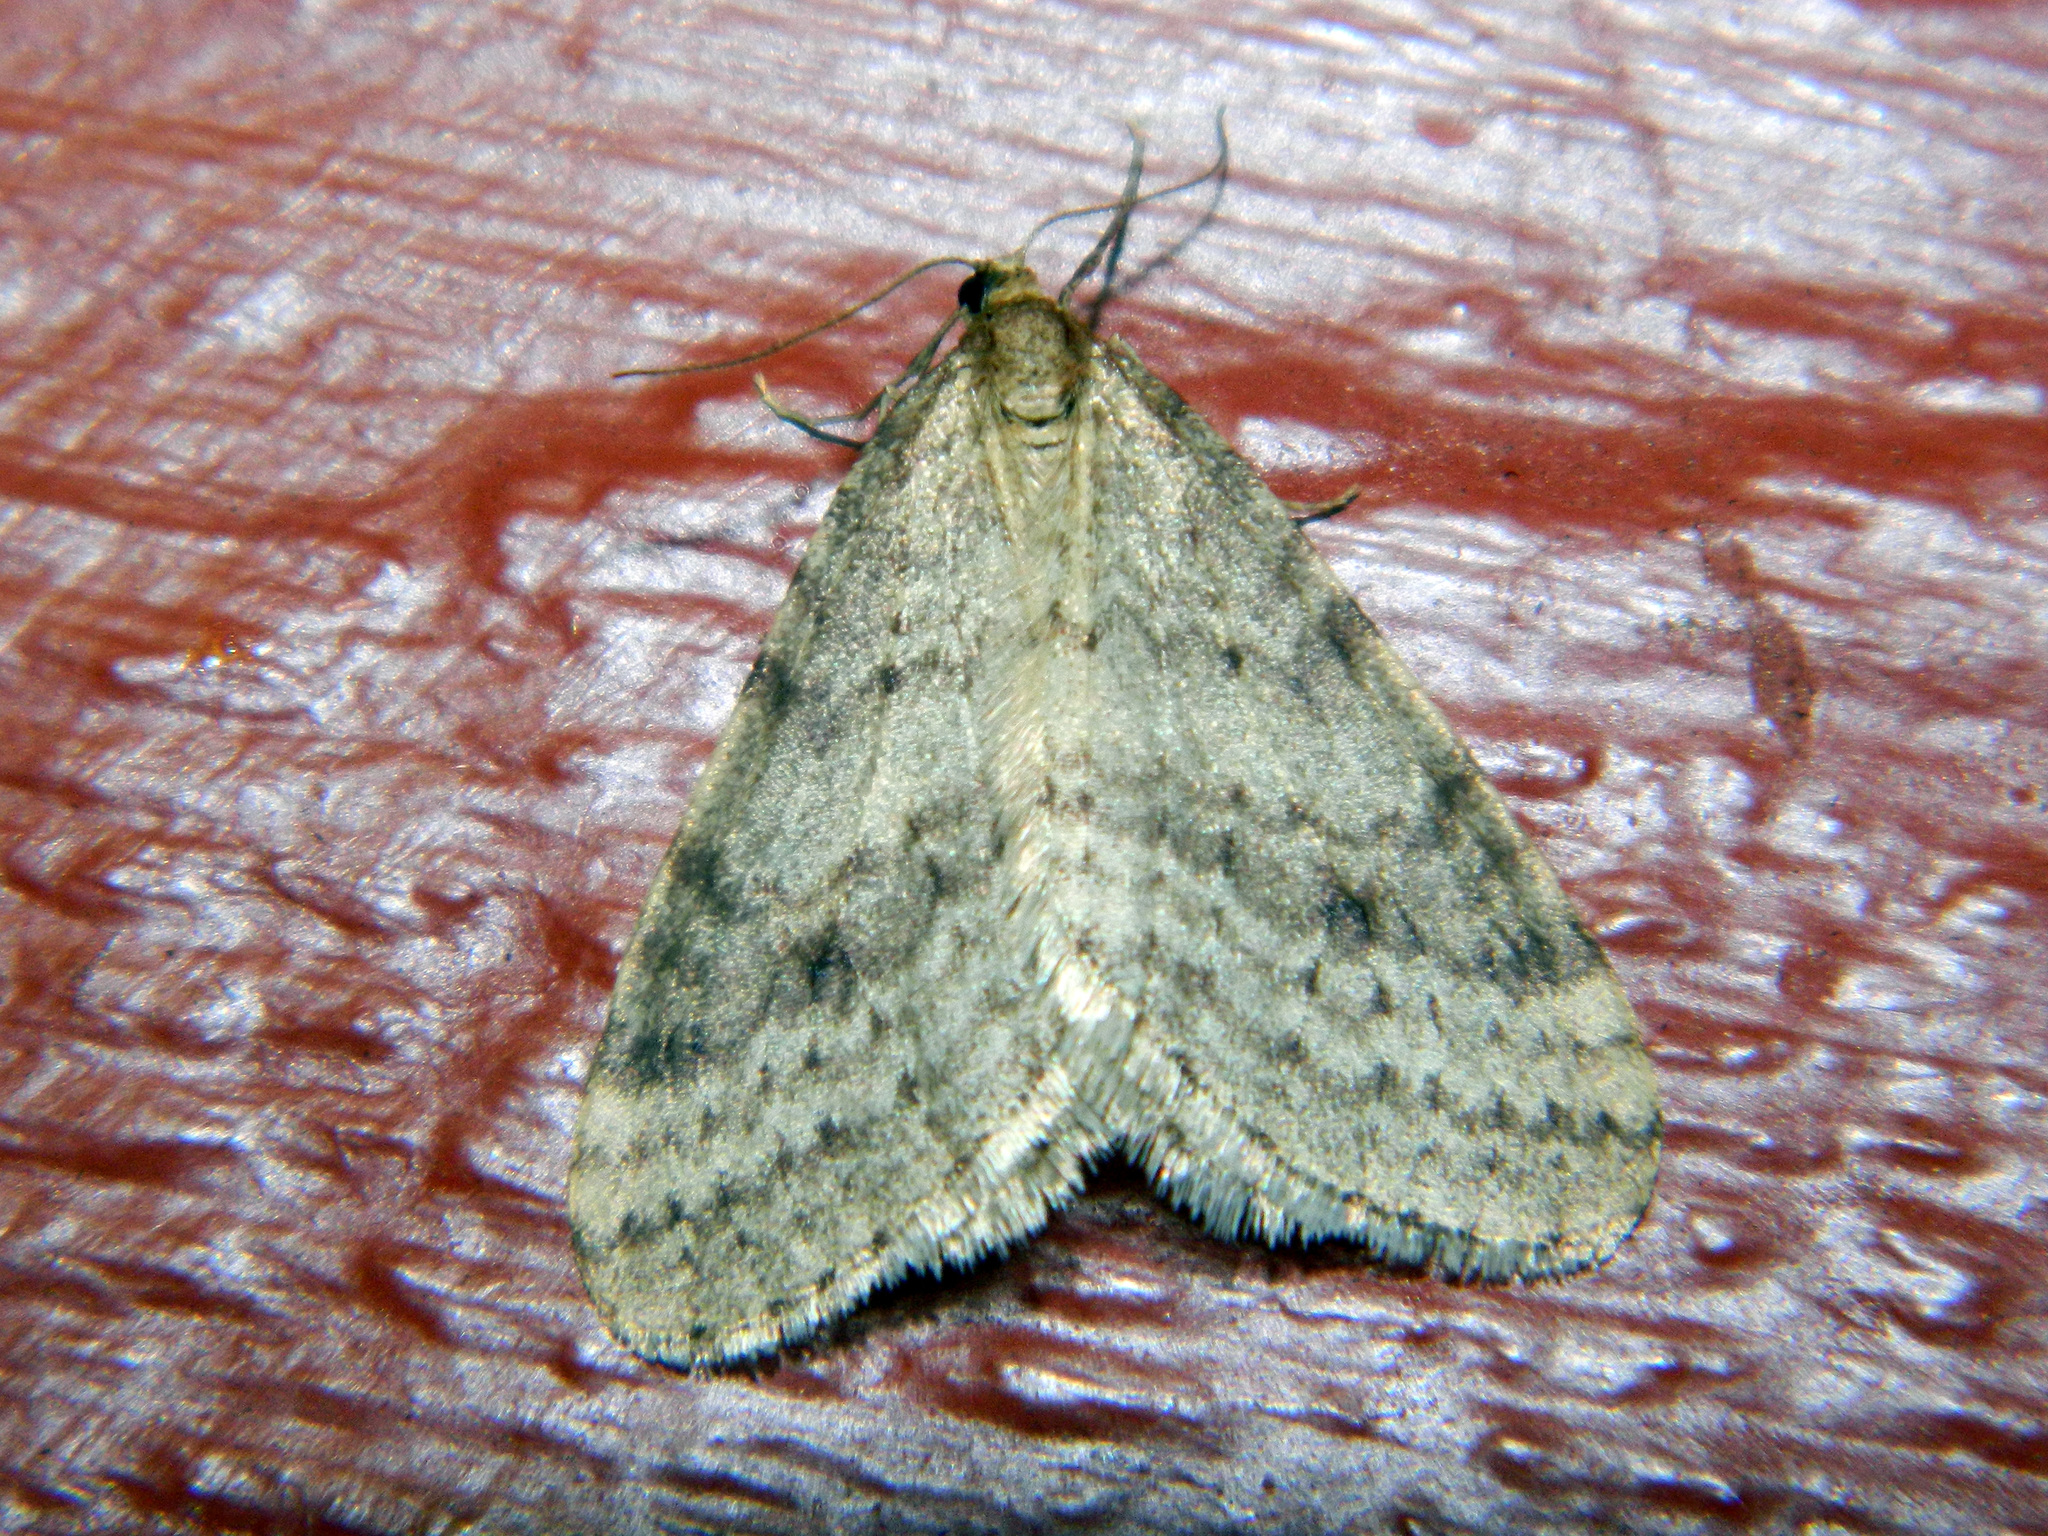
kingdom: Animalia
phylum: Arthropoda
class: Insecta
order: Lepidoptera
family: Geometridae
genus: Operophtera
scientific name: Operophtera bruceata
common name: Bruce spanworm
